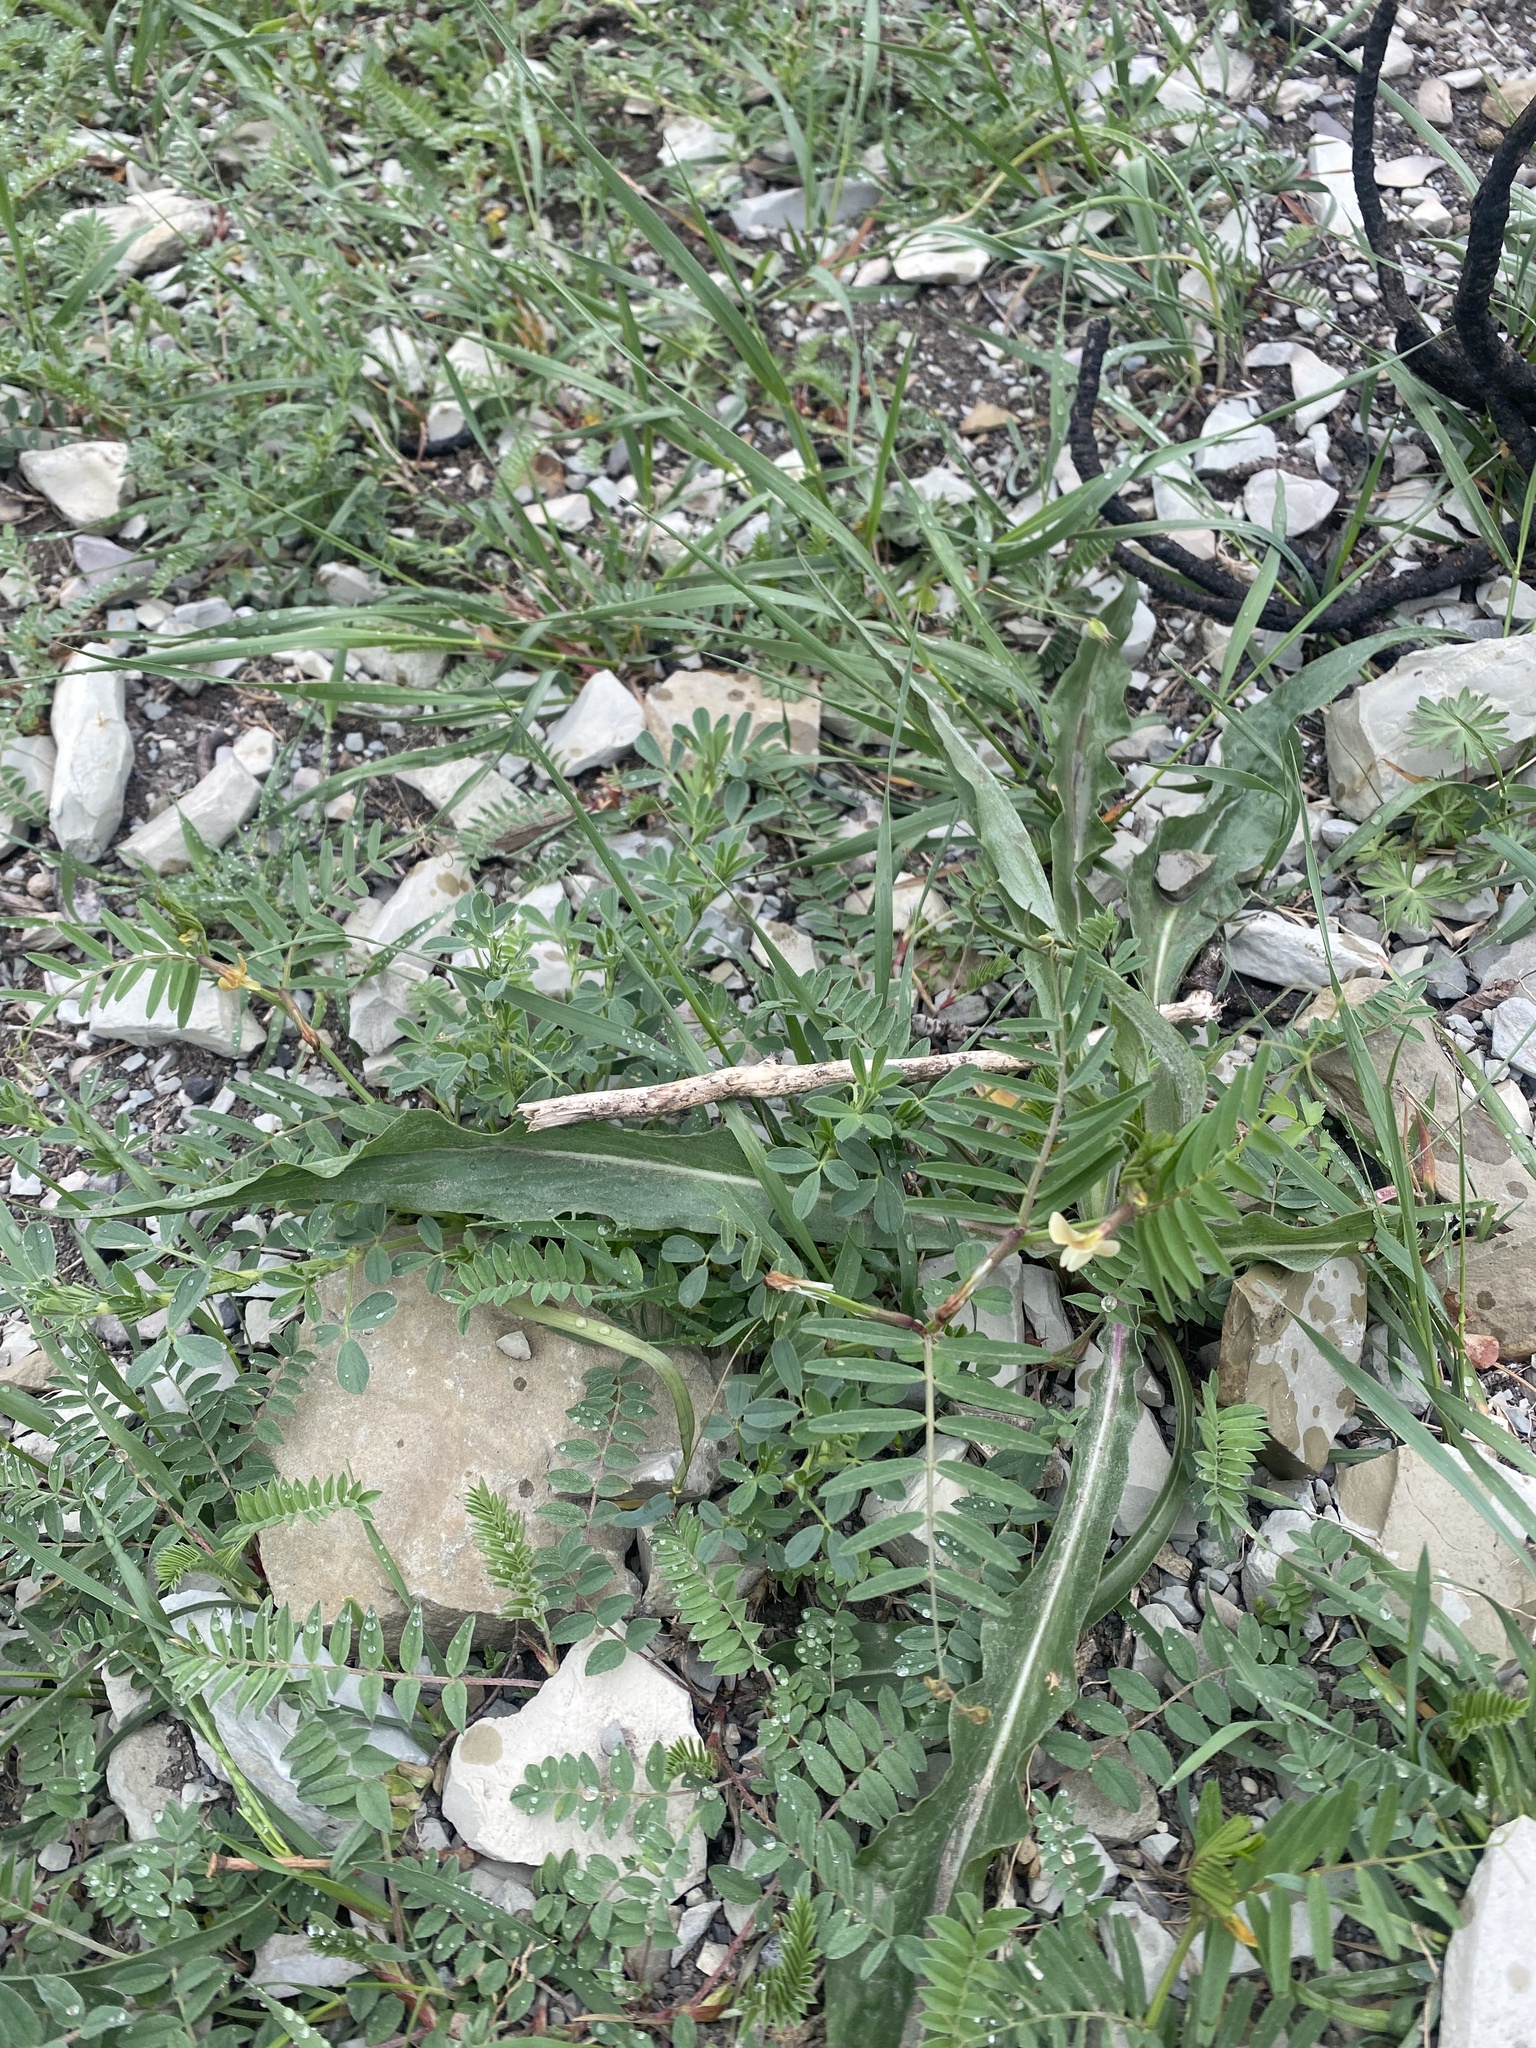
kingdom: Plantae
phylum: Tracheophyta
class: Magnoliopsida
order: Fabales
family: Fabaceae
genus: Vicia
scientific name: Vicia grandiflora
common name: Large yellow vetch
